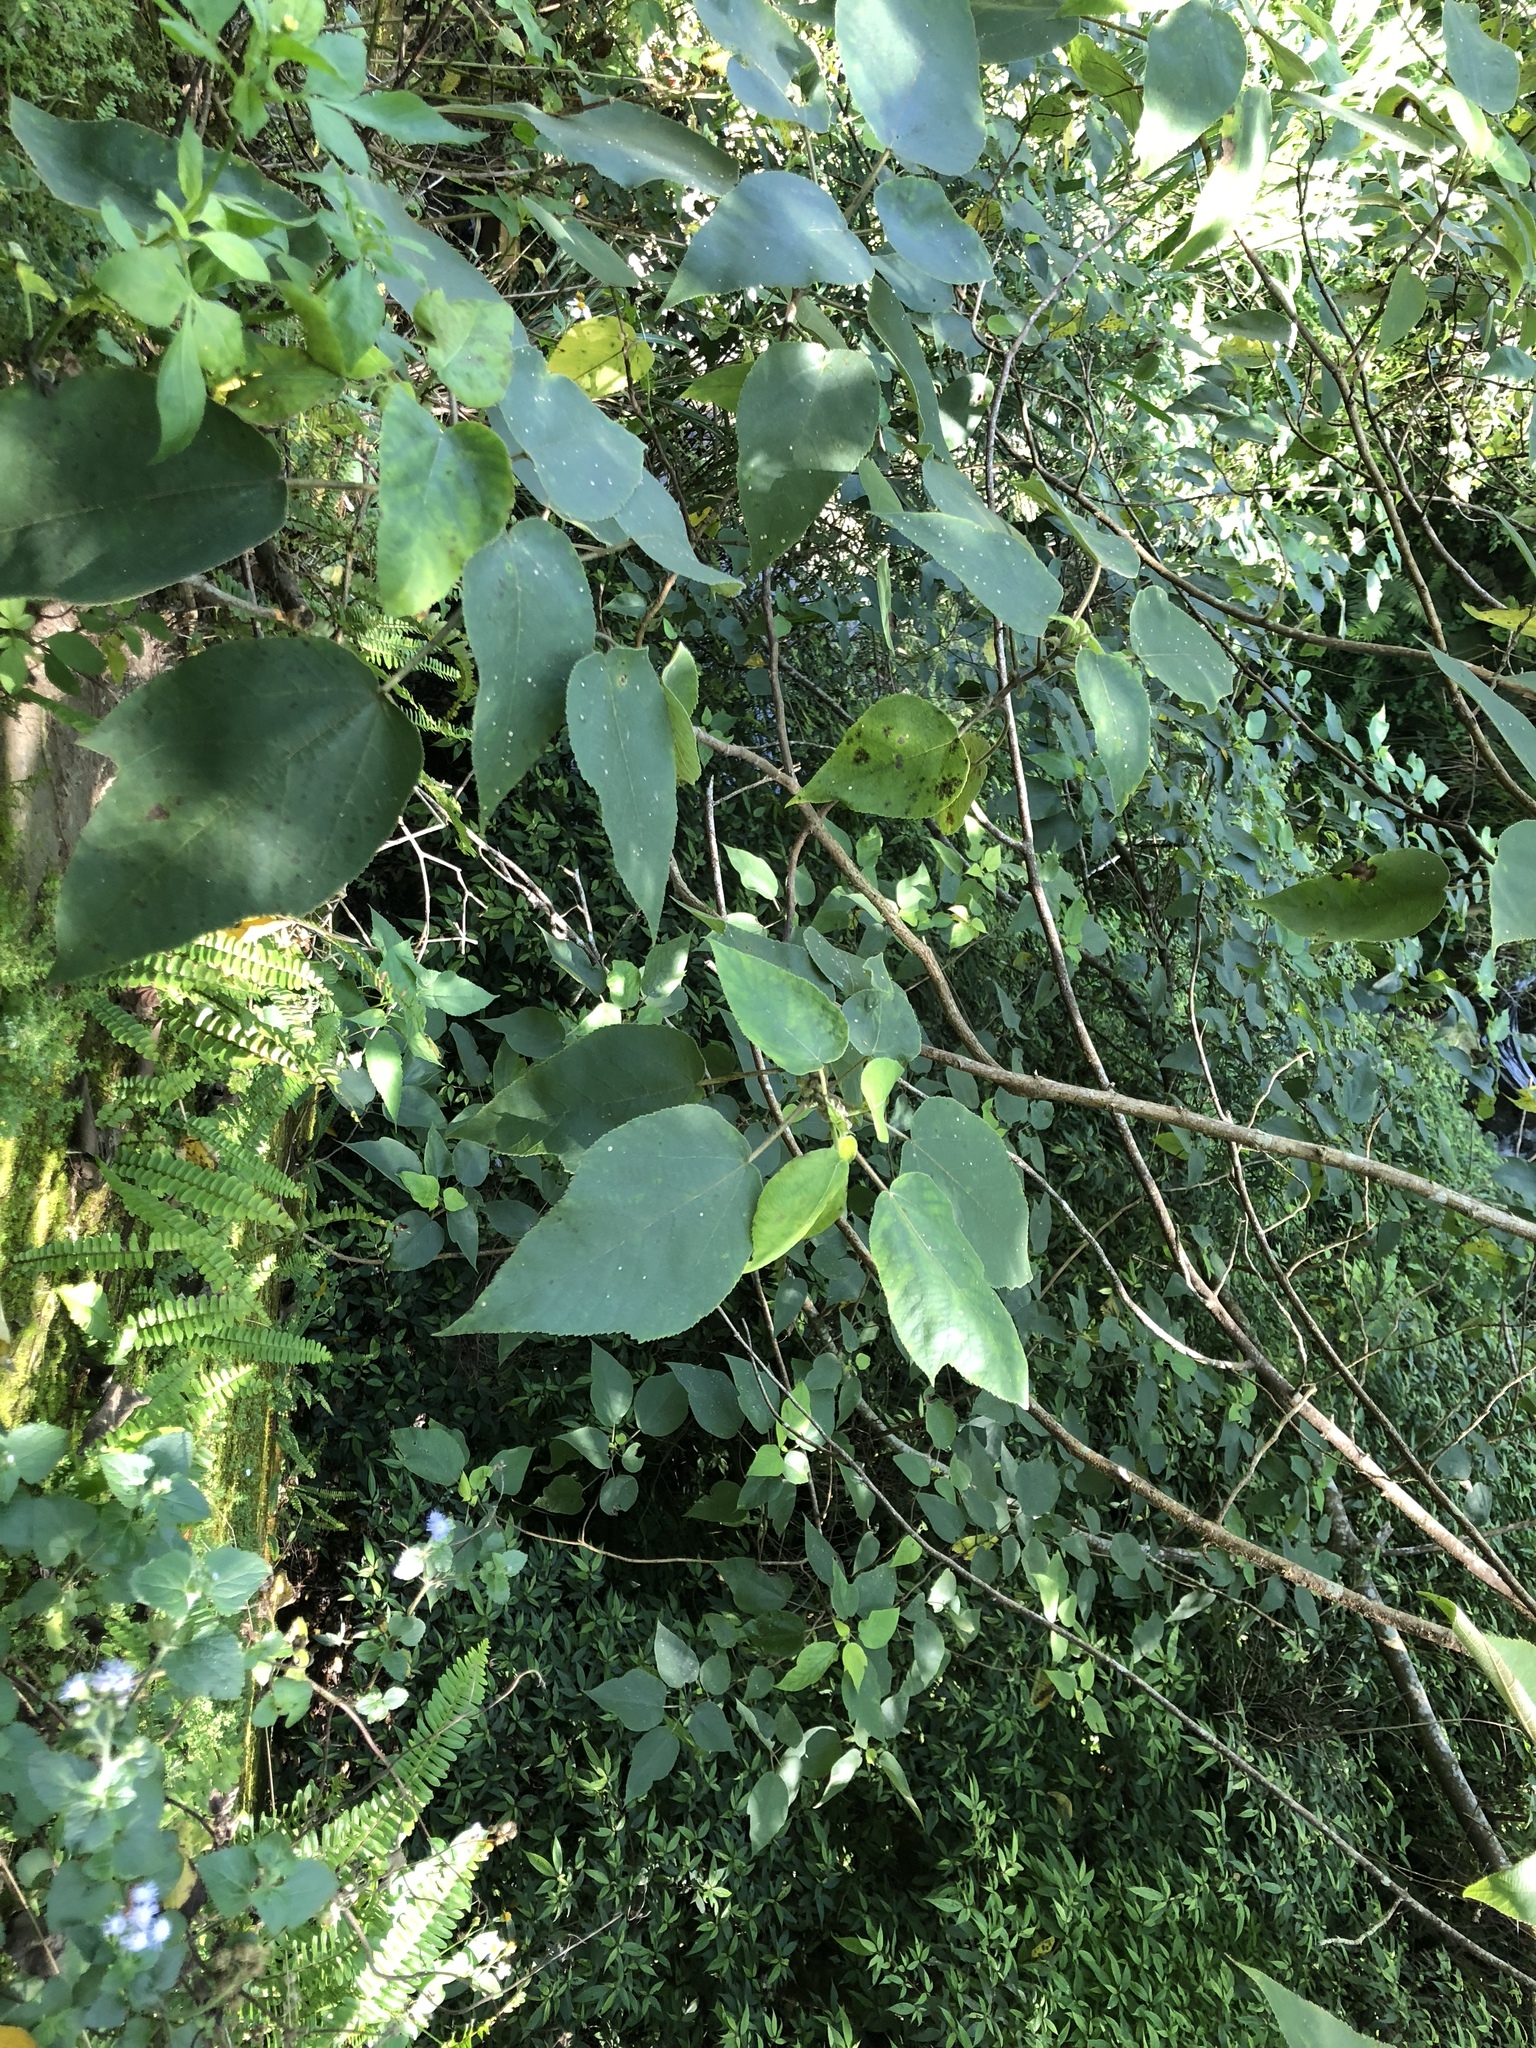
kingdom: Plantae
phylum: Tracheophyta
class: Magnoliopsida
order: Rosales
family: Moraceae
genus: Broussonetia
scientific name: Broussonetia papyrifera
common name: Paper mulberry
